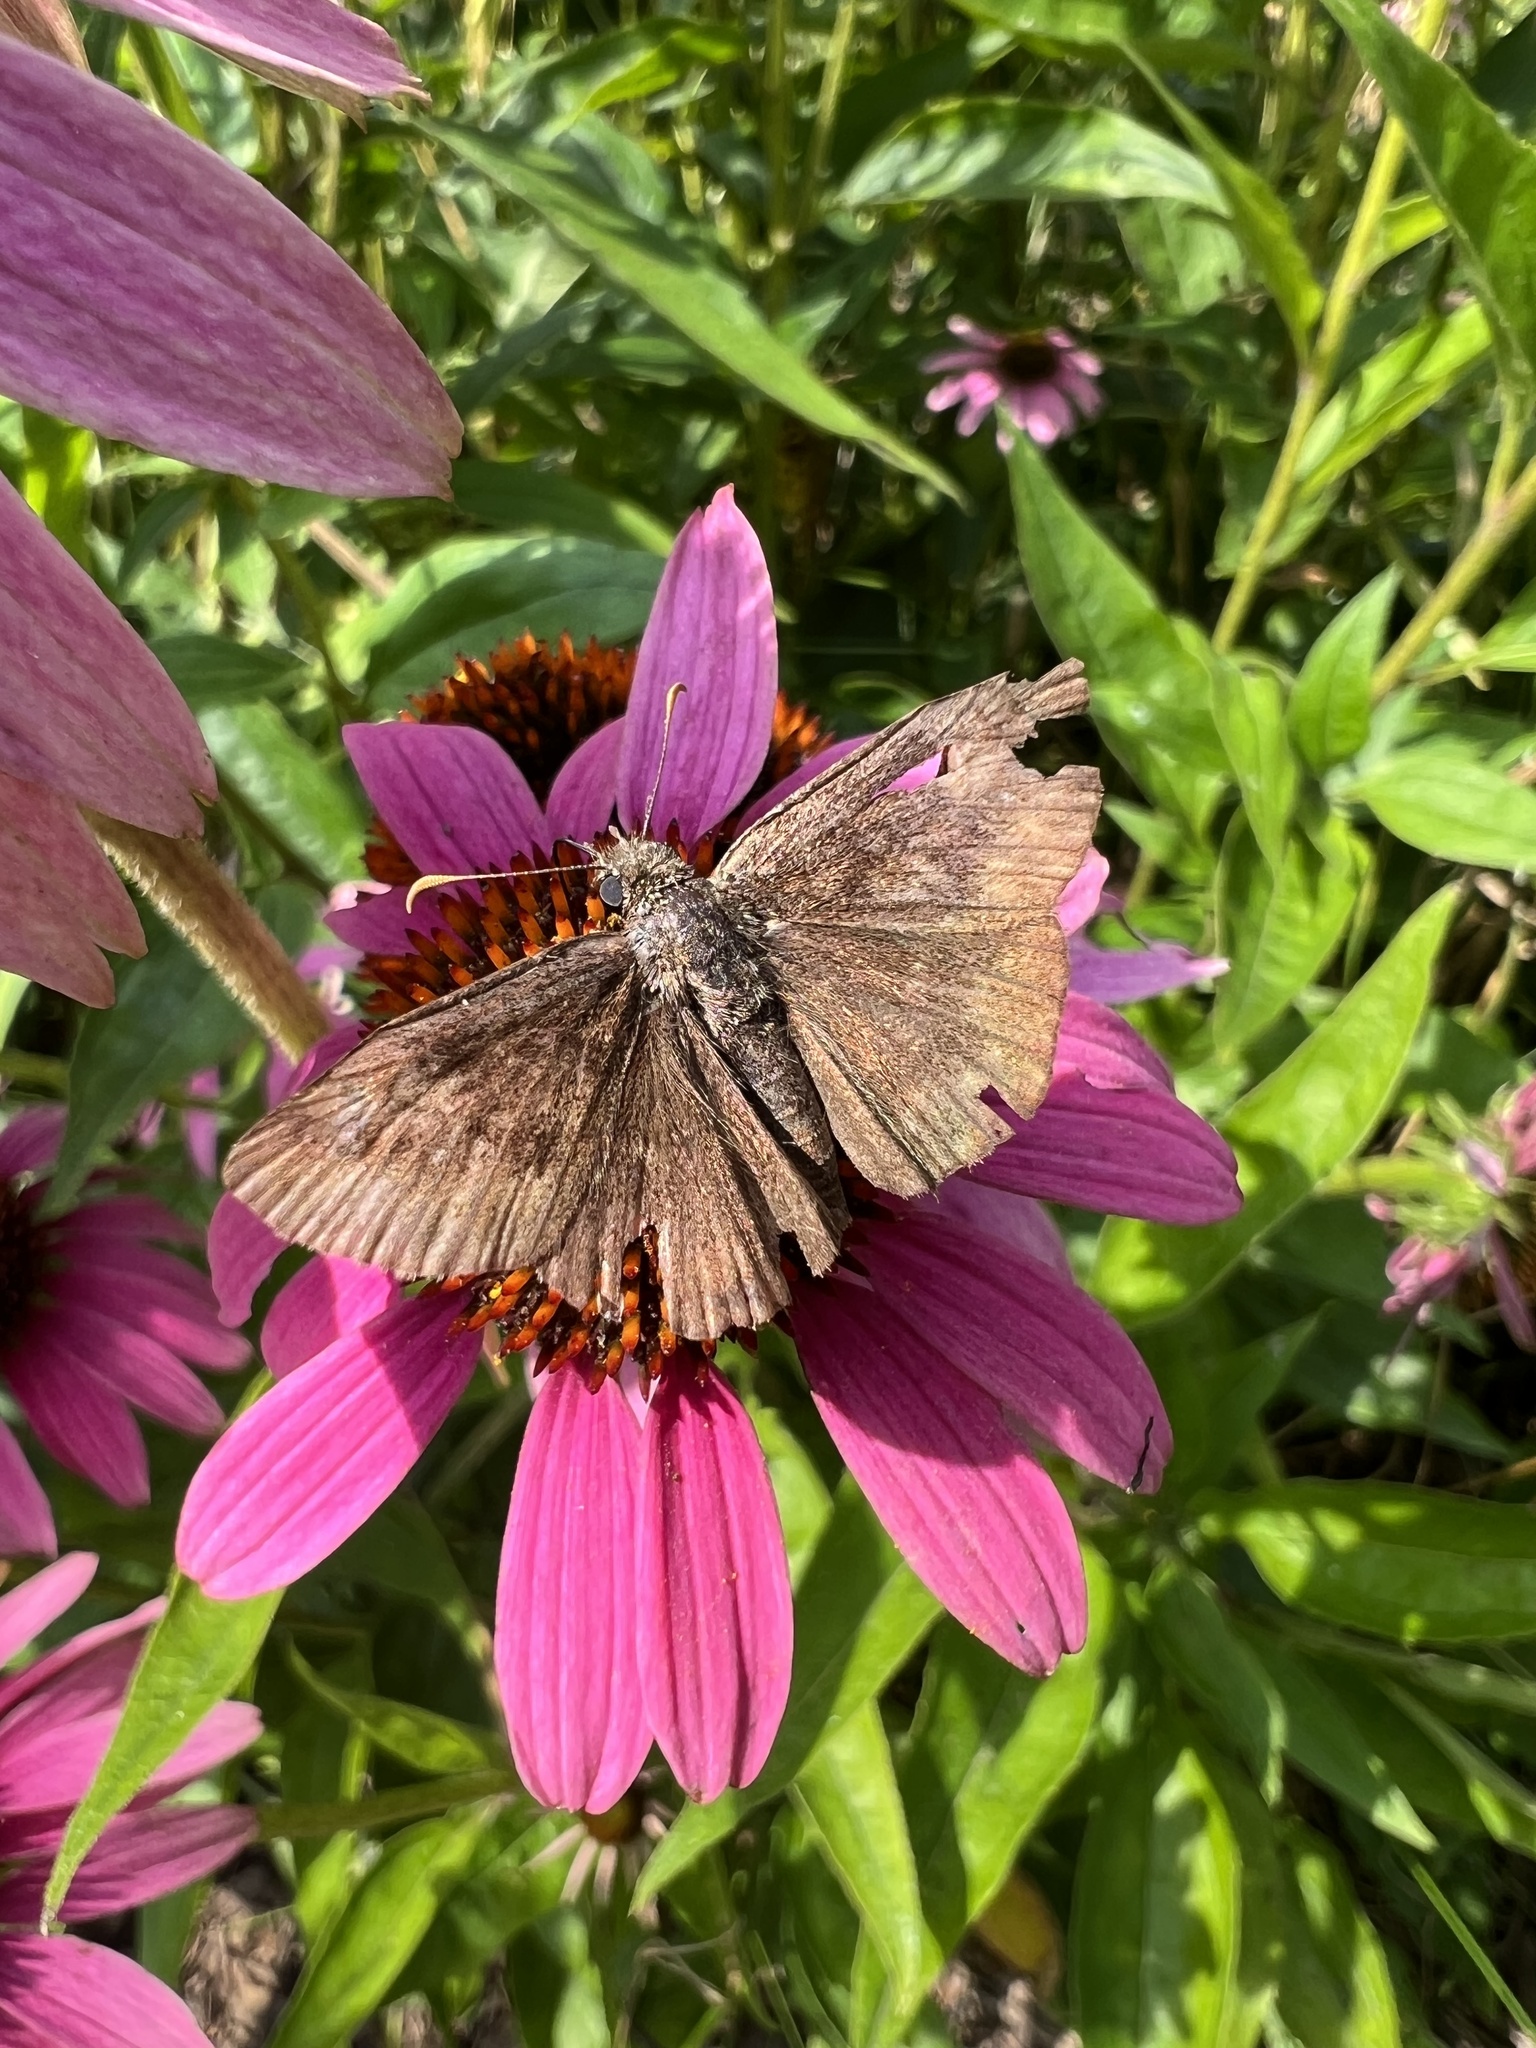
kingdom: Animalia
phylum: Arthropoda
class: Insecta
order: Lepidoptera
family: Hesperiidae
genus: Erynnis
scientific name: Erynnis baptisiae
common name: Wild indigo duskywing
